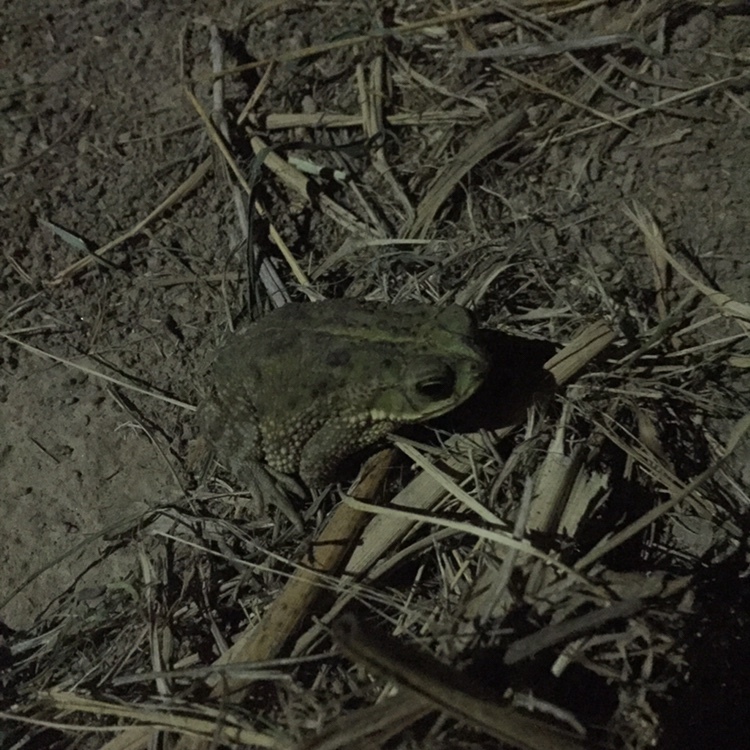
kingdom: Animalia
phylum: Chordata
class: Amphibia
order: Anura
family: Bufonidae
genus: Rhinella
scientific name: Rhinella dorbignyi
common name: D´orbigny’s toad
